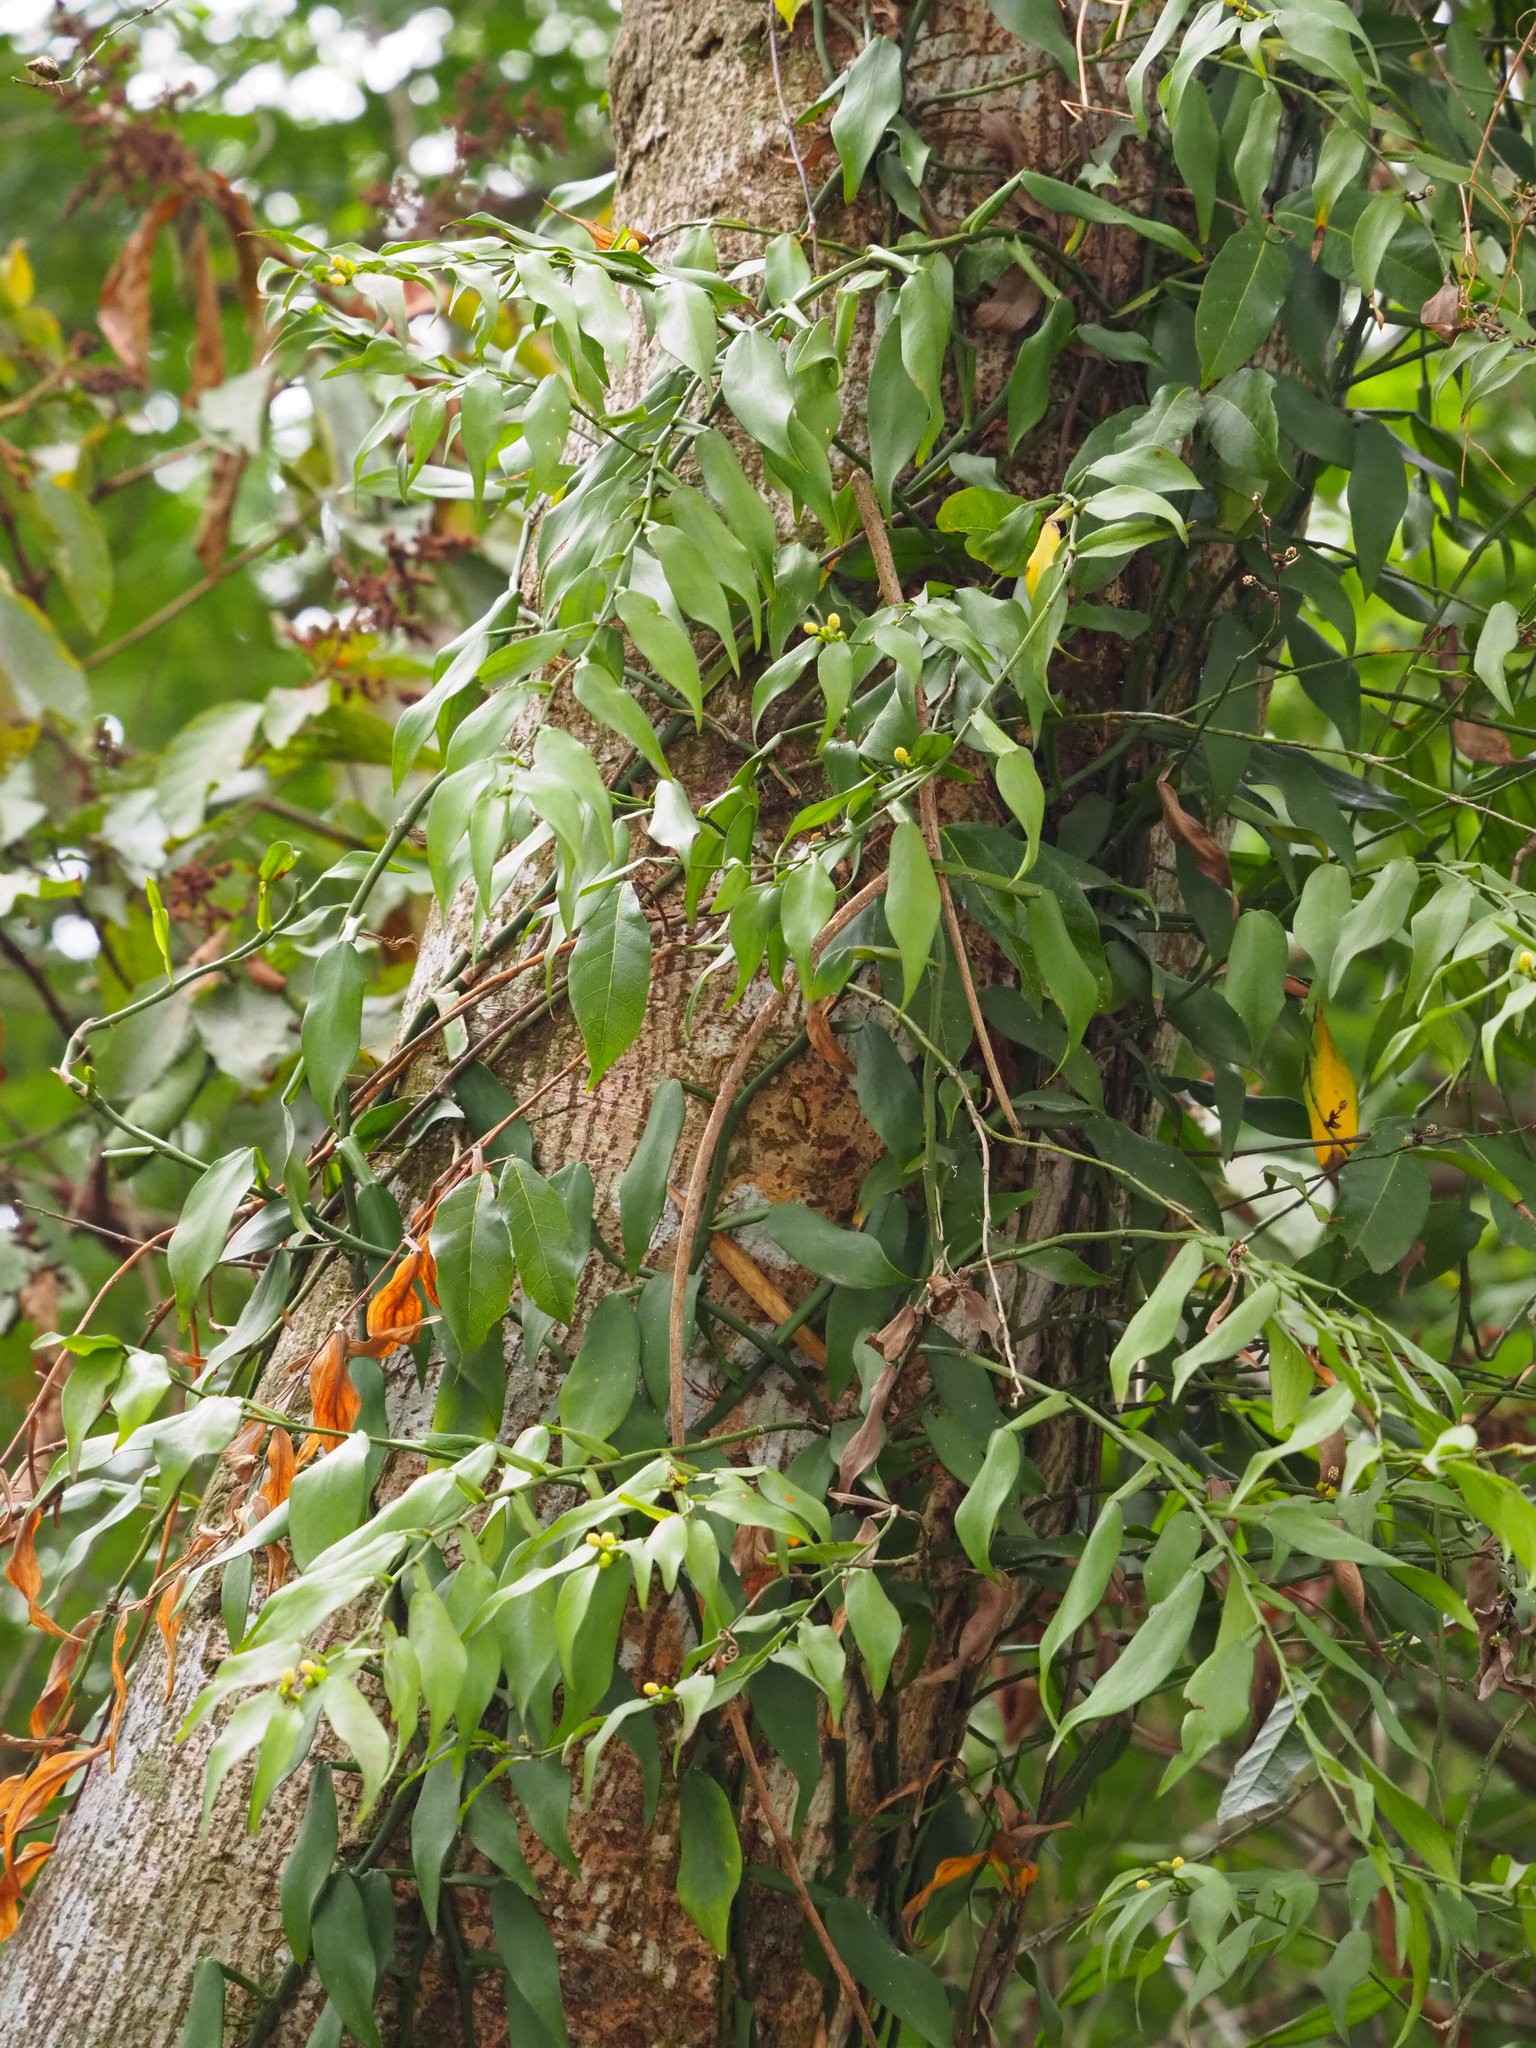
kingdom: Plantae
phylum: Tracheophyta
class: Liliopsida
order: Alismatales
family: Araceae
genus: Pothos
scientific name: Pothos chinensis
